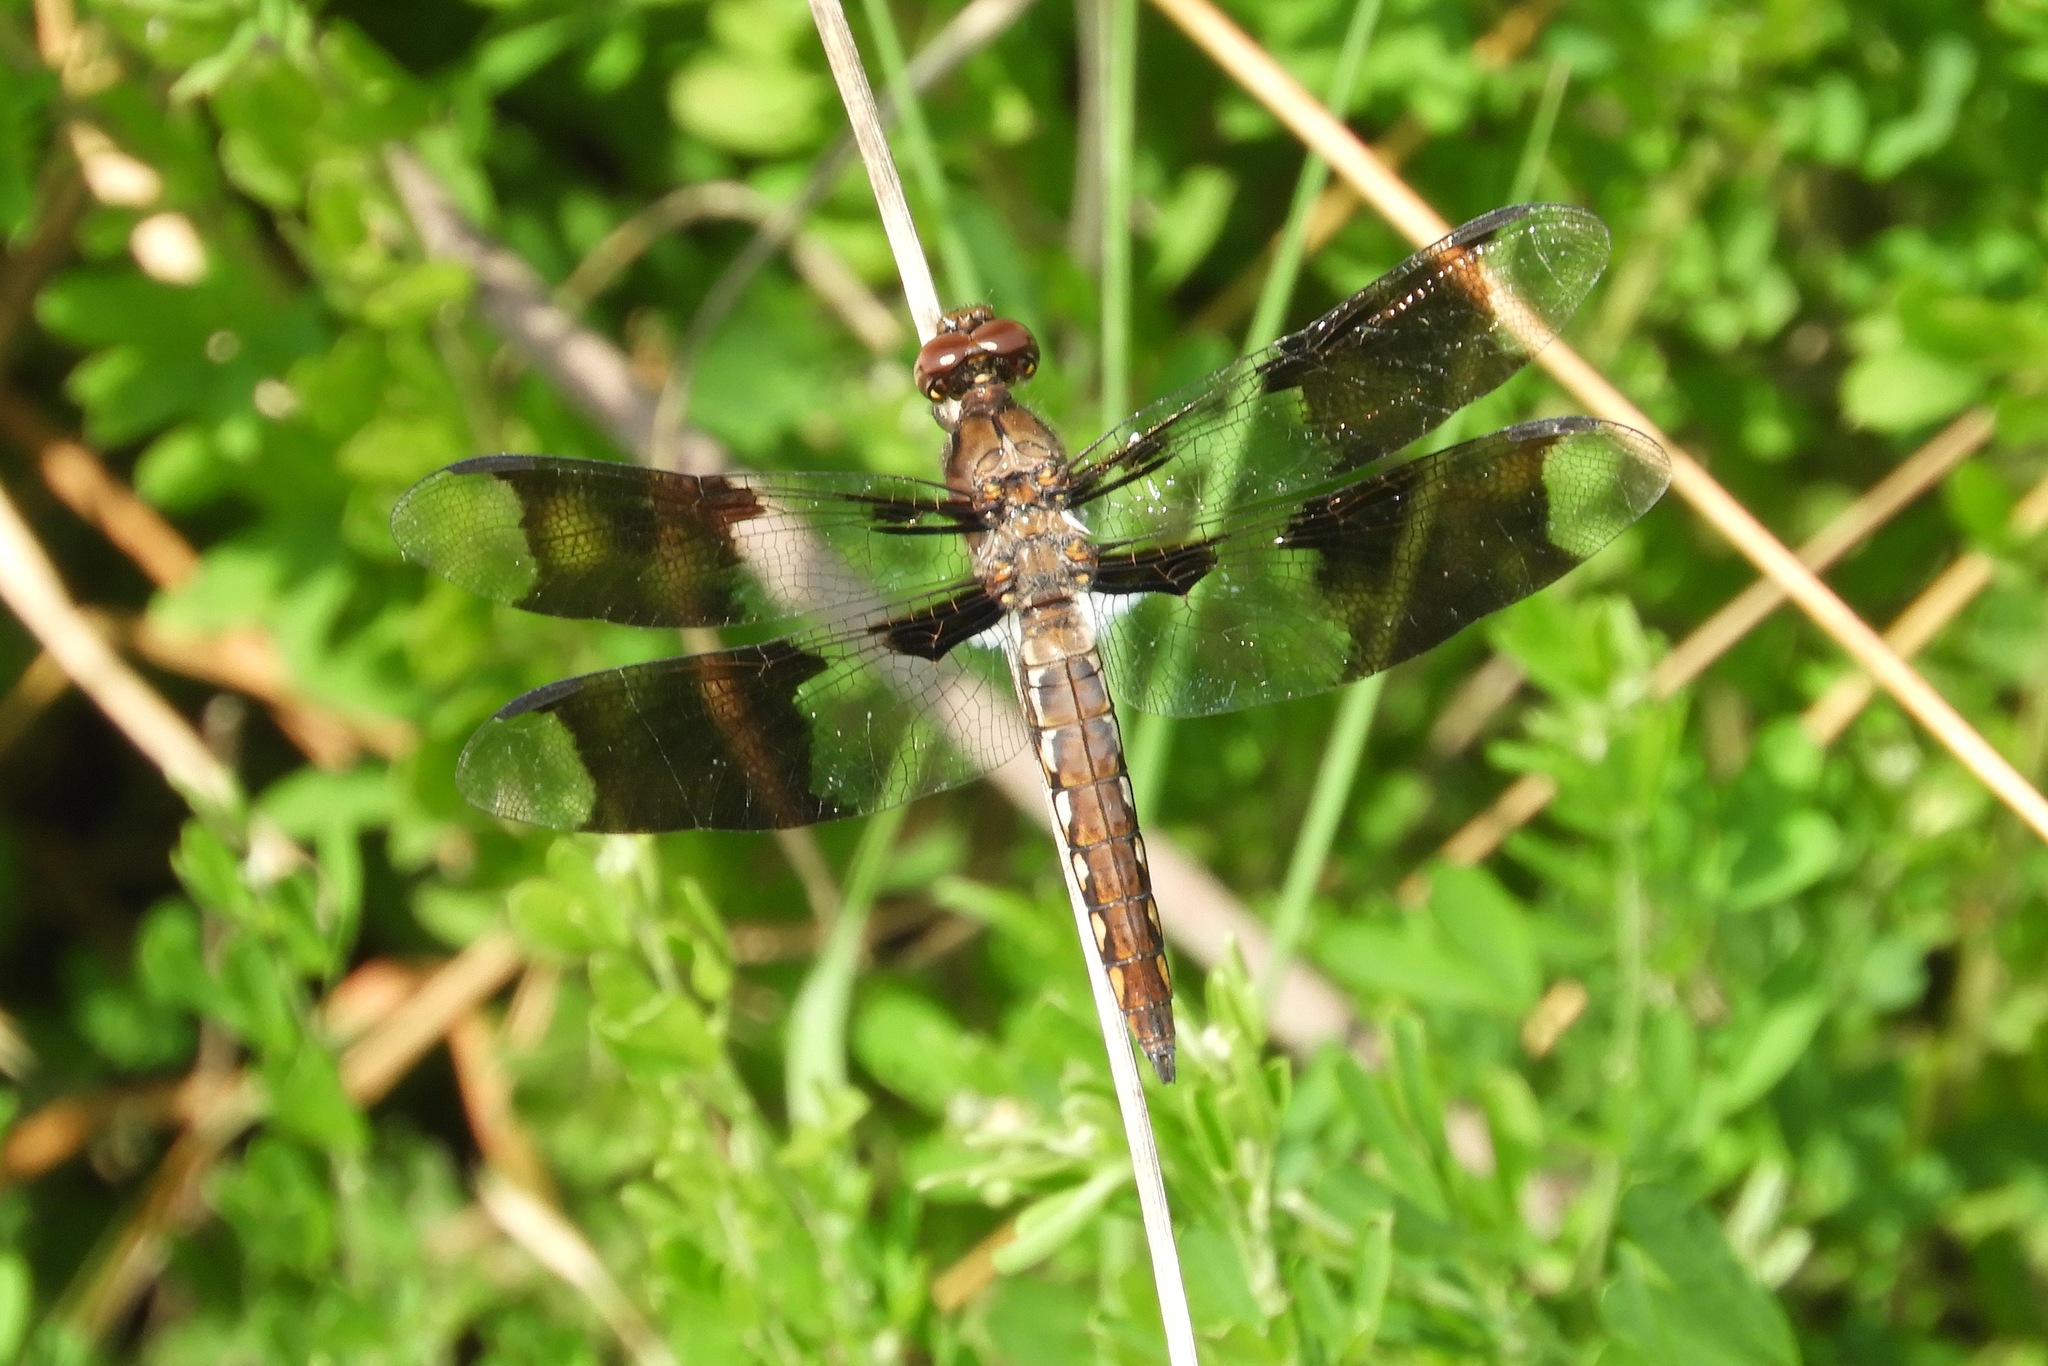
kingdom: Animalia
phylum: Arthropoda
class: Insecta
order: Odonata
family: Libellulidae
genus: Plathemis
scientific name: Plathemis lydia
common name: Common whitetail
